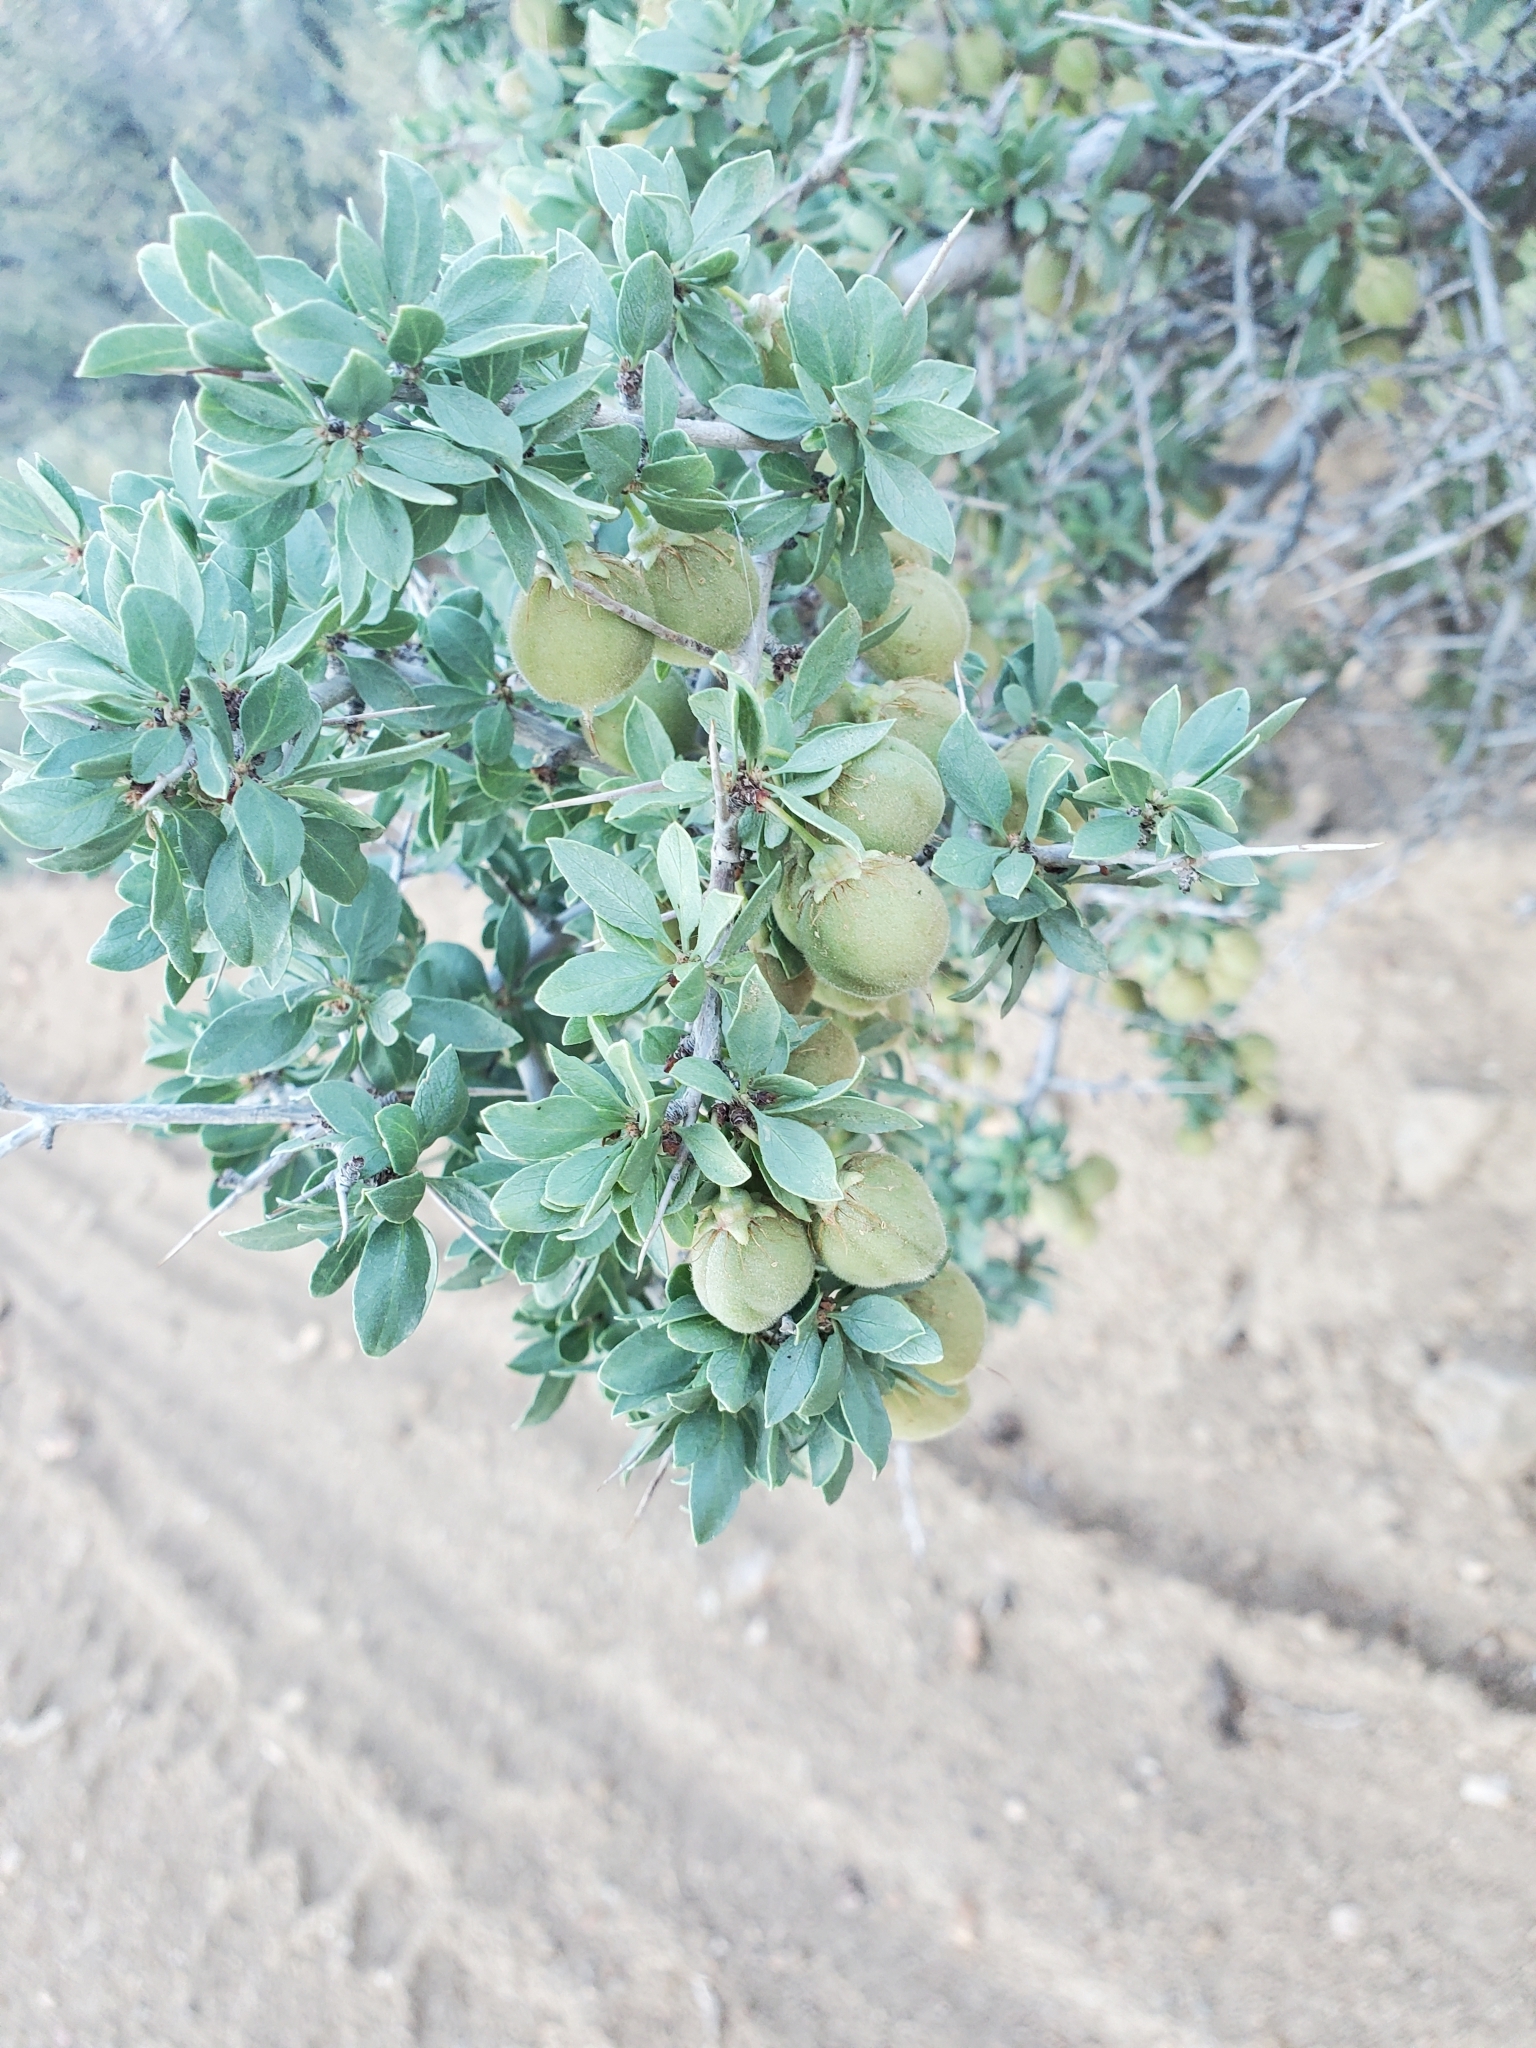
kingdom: Plantae
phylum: Tracheophyta
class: Magnoliopsida
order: Rosales
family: Rosaceae
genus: Prunus
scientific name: Prunus andersonii
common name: Desert peach
